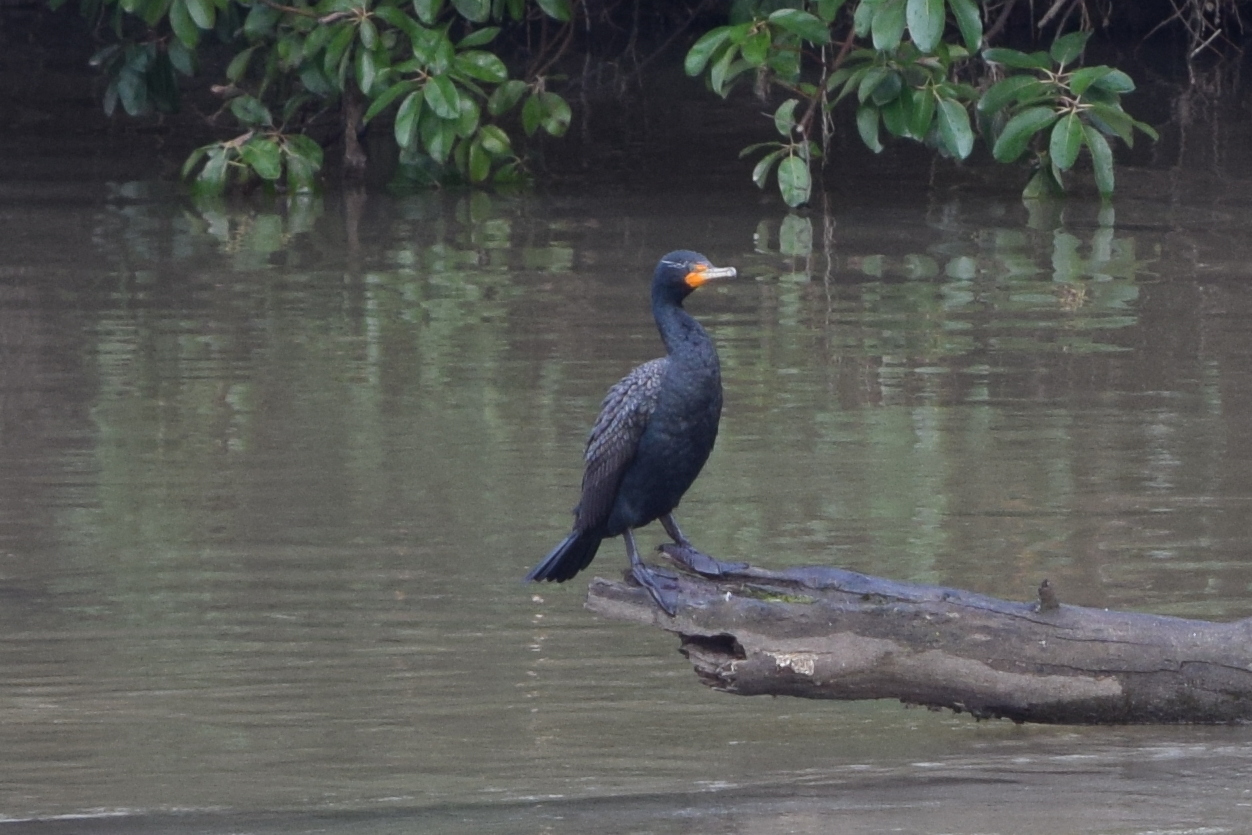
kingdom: Animalia
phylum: Chordata
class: Aves
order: Suliformes
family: Phalacrocoracidae
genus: Phalacrocorax
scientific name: Phalacrocorax auritus
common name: Double-crested cormorant
